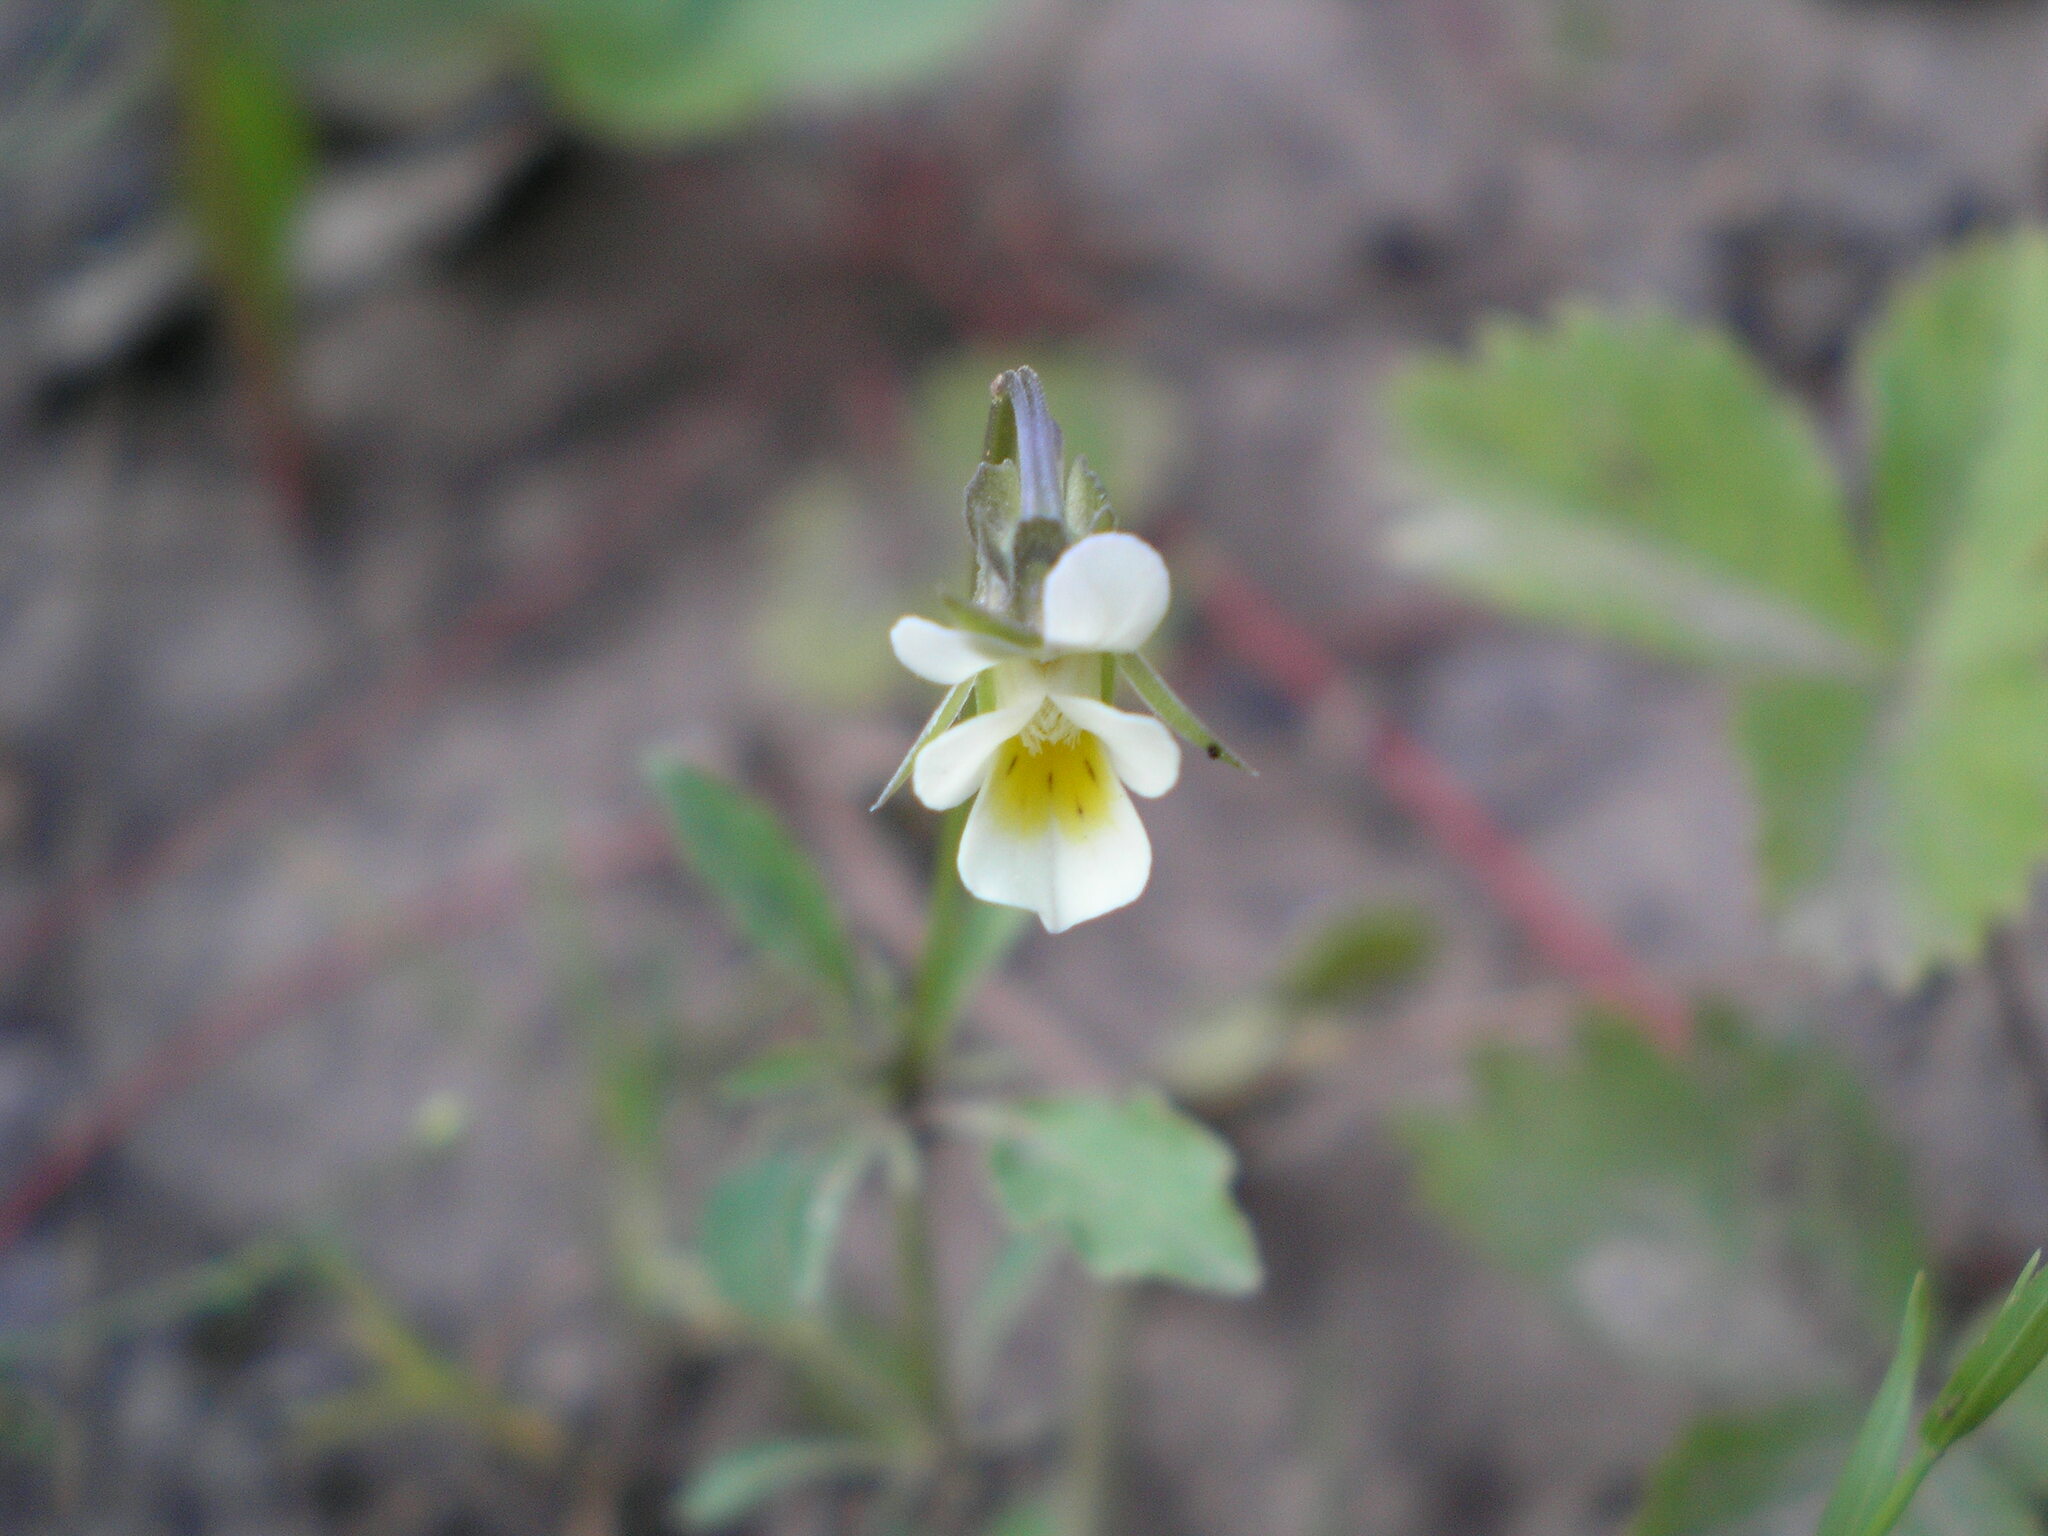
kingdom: Plantae
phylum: Tracheophyta
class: Magnoliopsida
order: Malpighiales
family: Violaceae
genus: Viola
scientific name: Viola arvensis
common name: Field pansy
